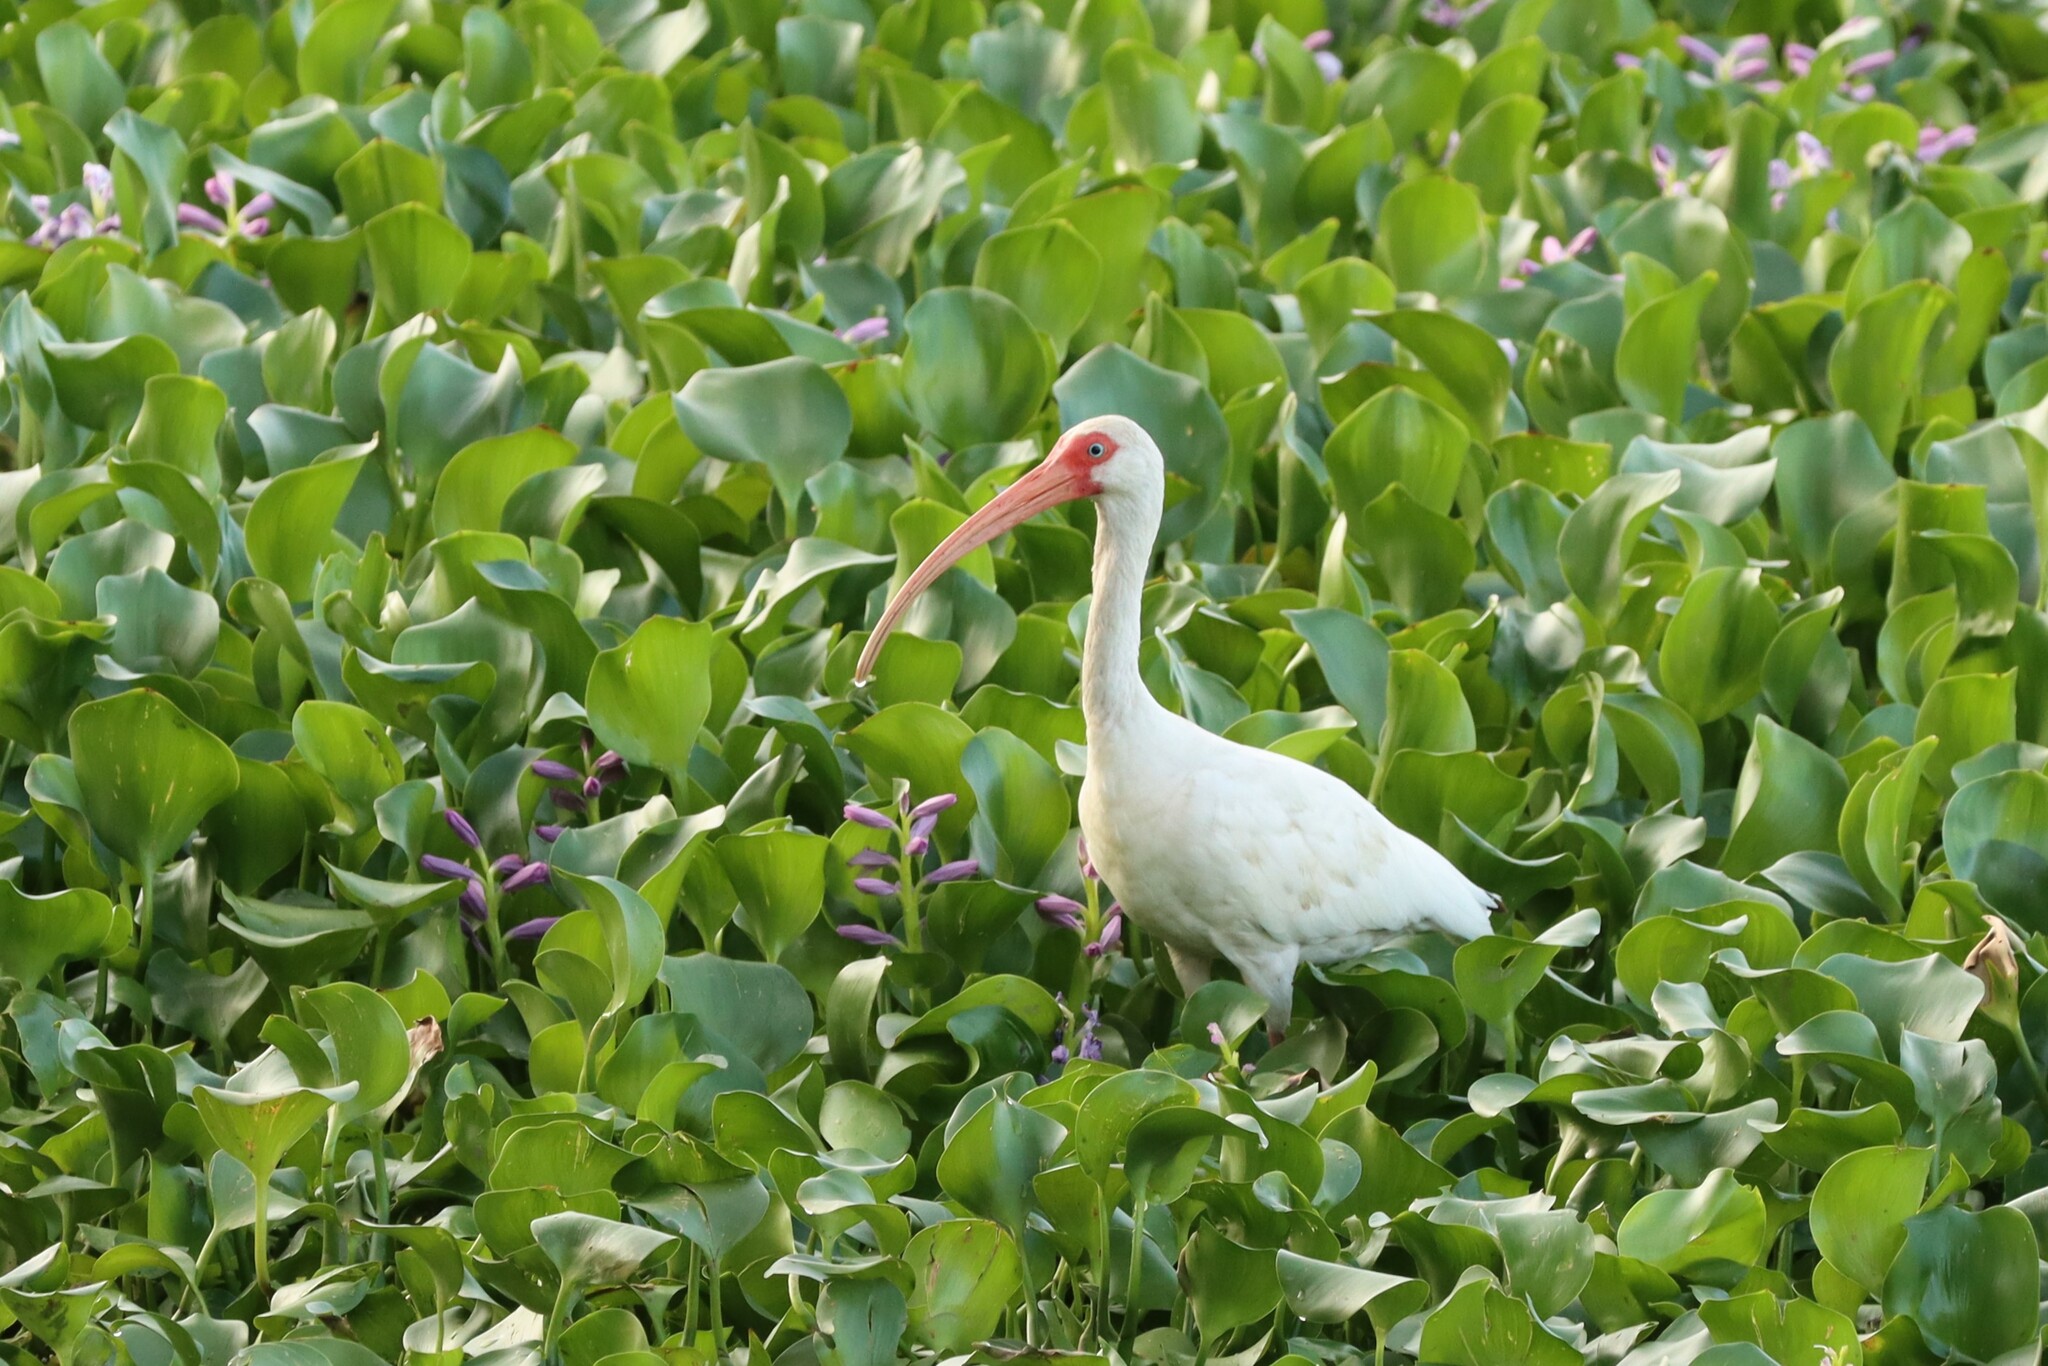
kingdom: Animalia
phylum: Chordata
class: Aves
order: Pelecaniformes
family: Threskiornithidae
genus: Eudocimus
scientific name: Eudocimus albus
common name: White ibis
